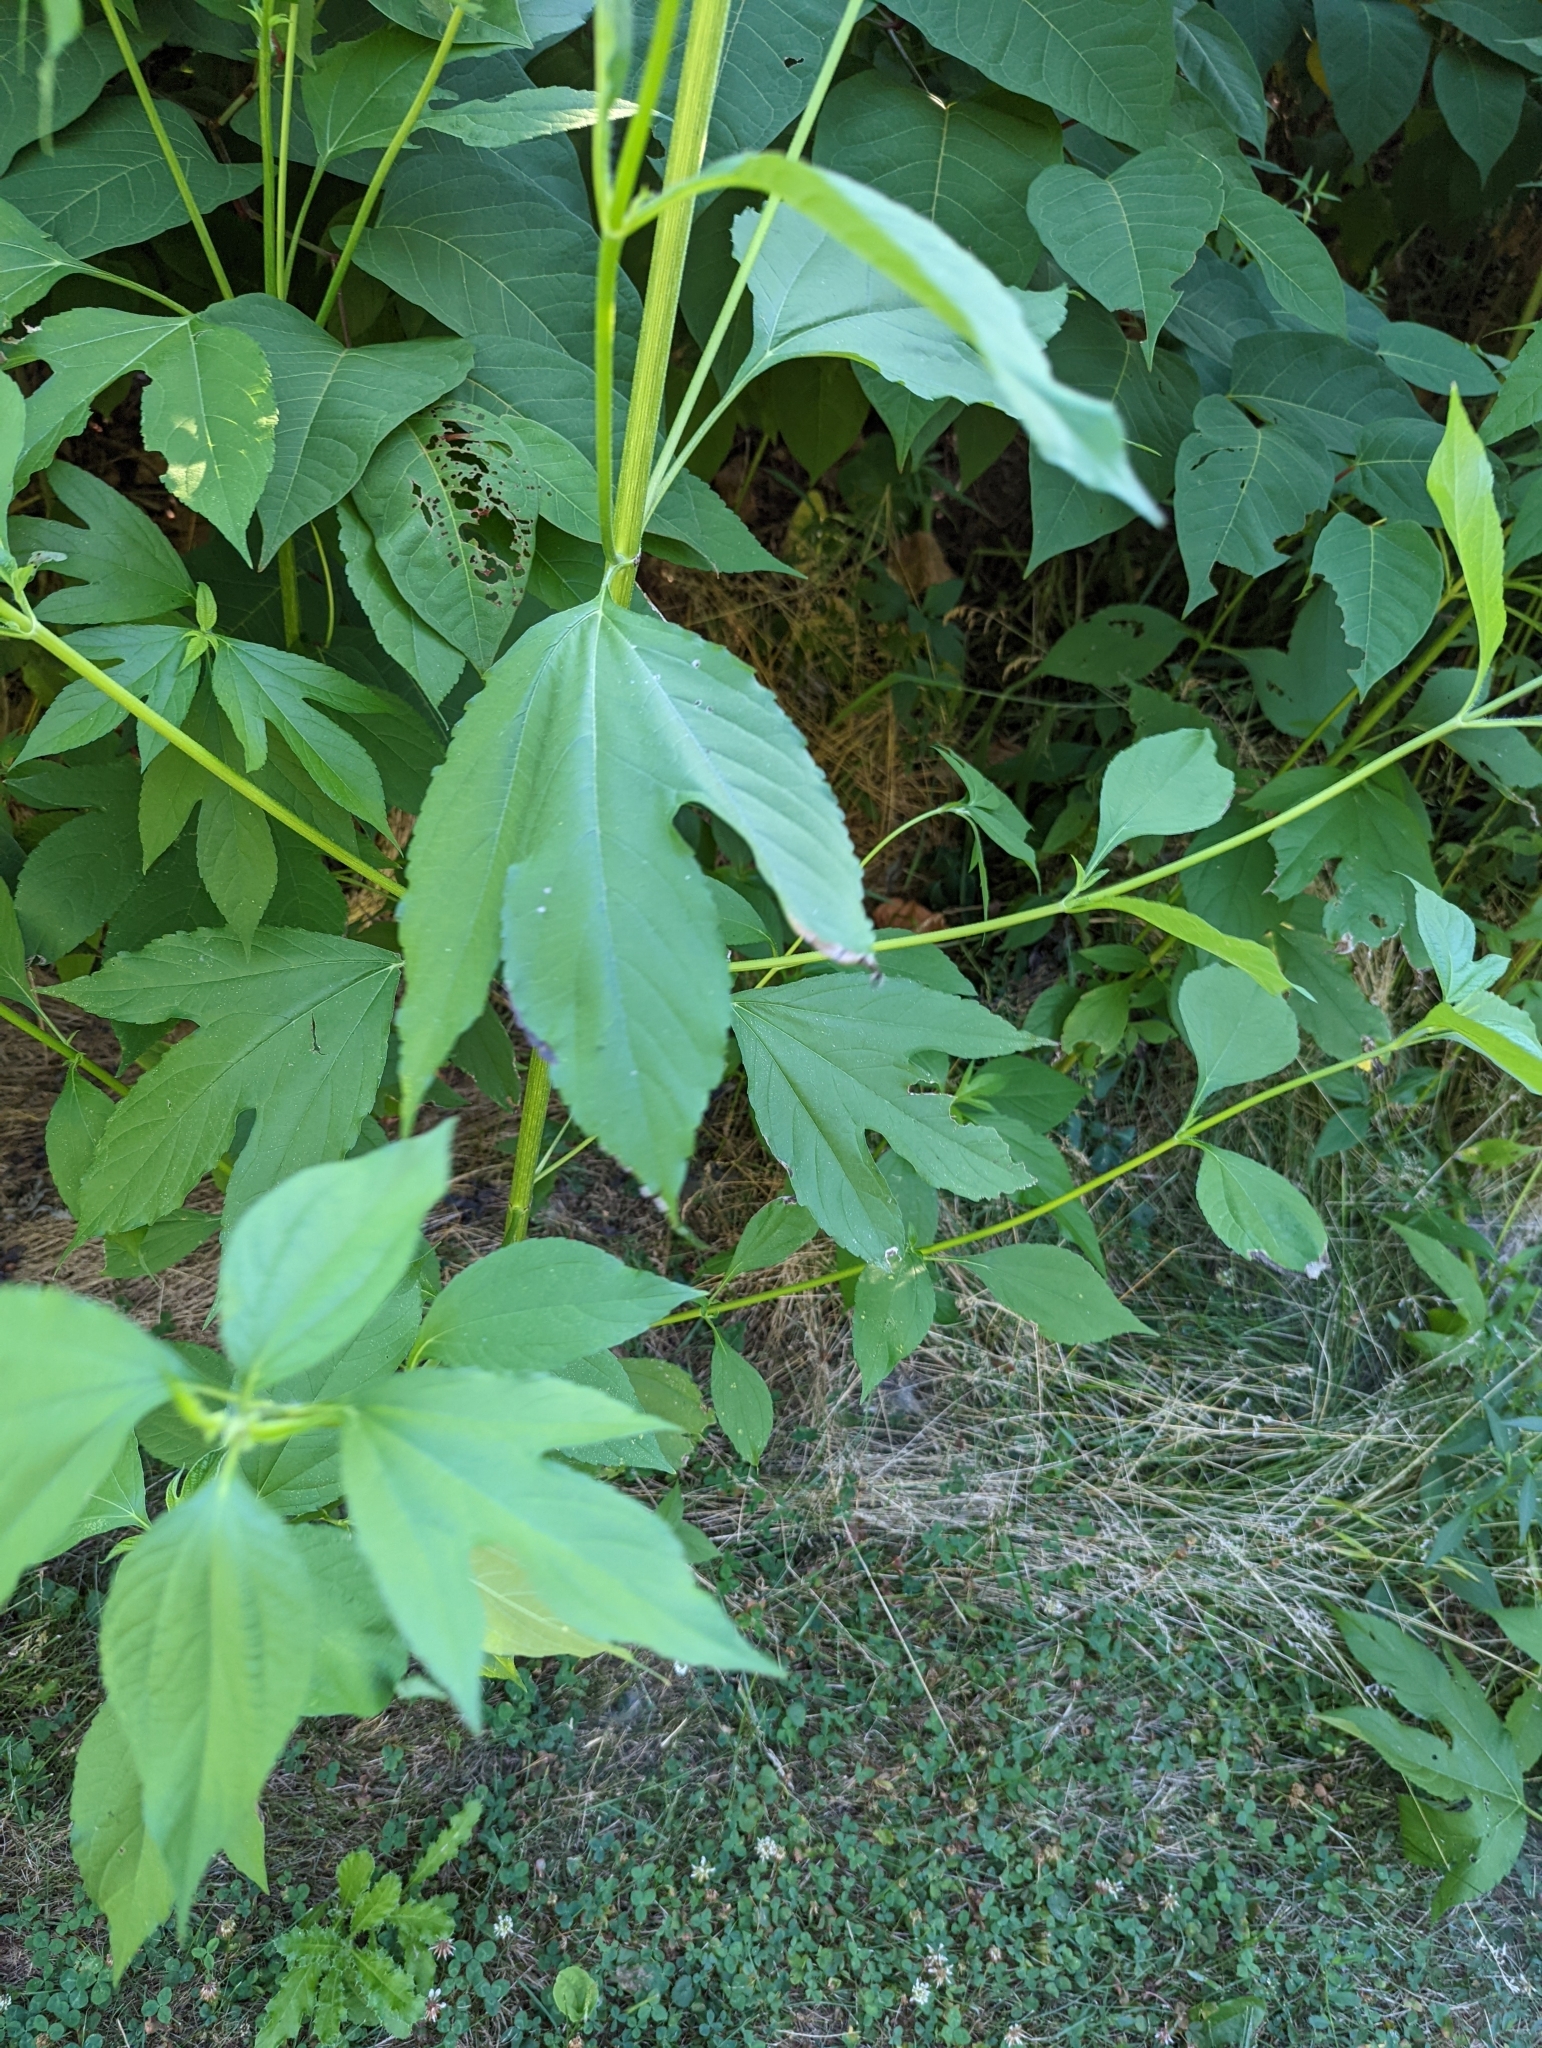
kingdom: Plantae
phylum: Tracheophyta
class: Magnoliopsida
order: Asterales
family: Asteraceae
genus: Ambrosia
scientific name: Ambrosia trifida
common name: Giant ragweed
